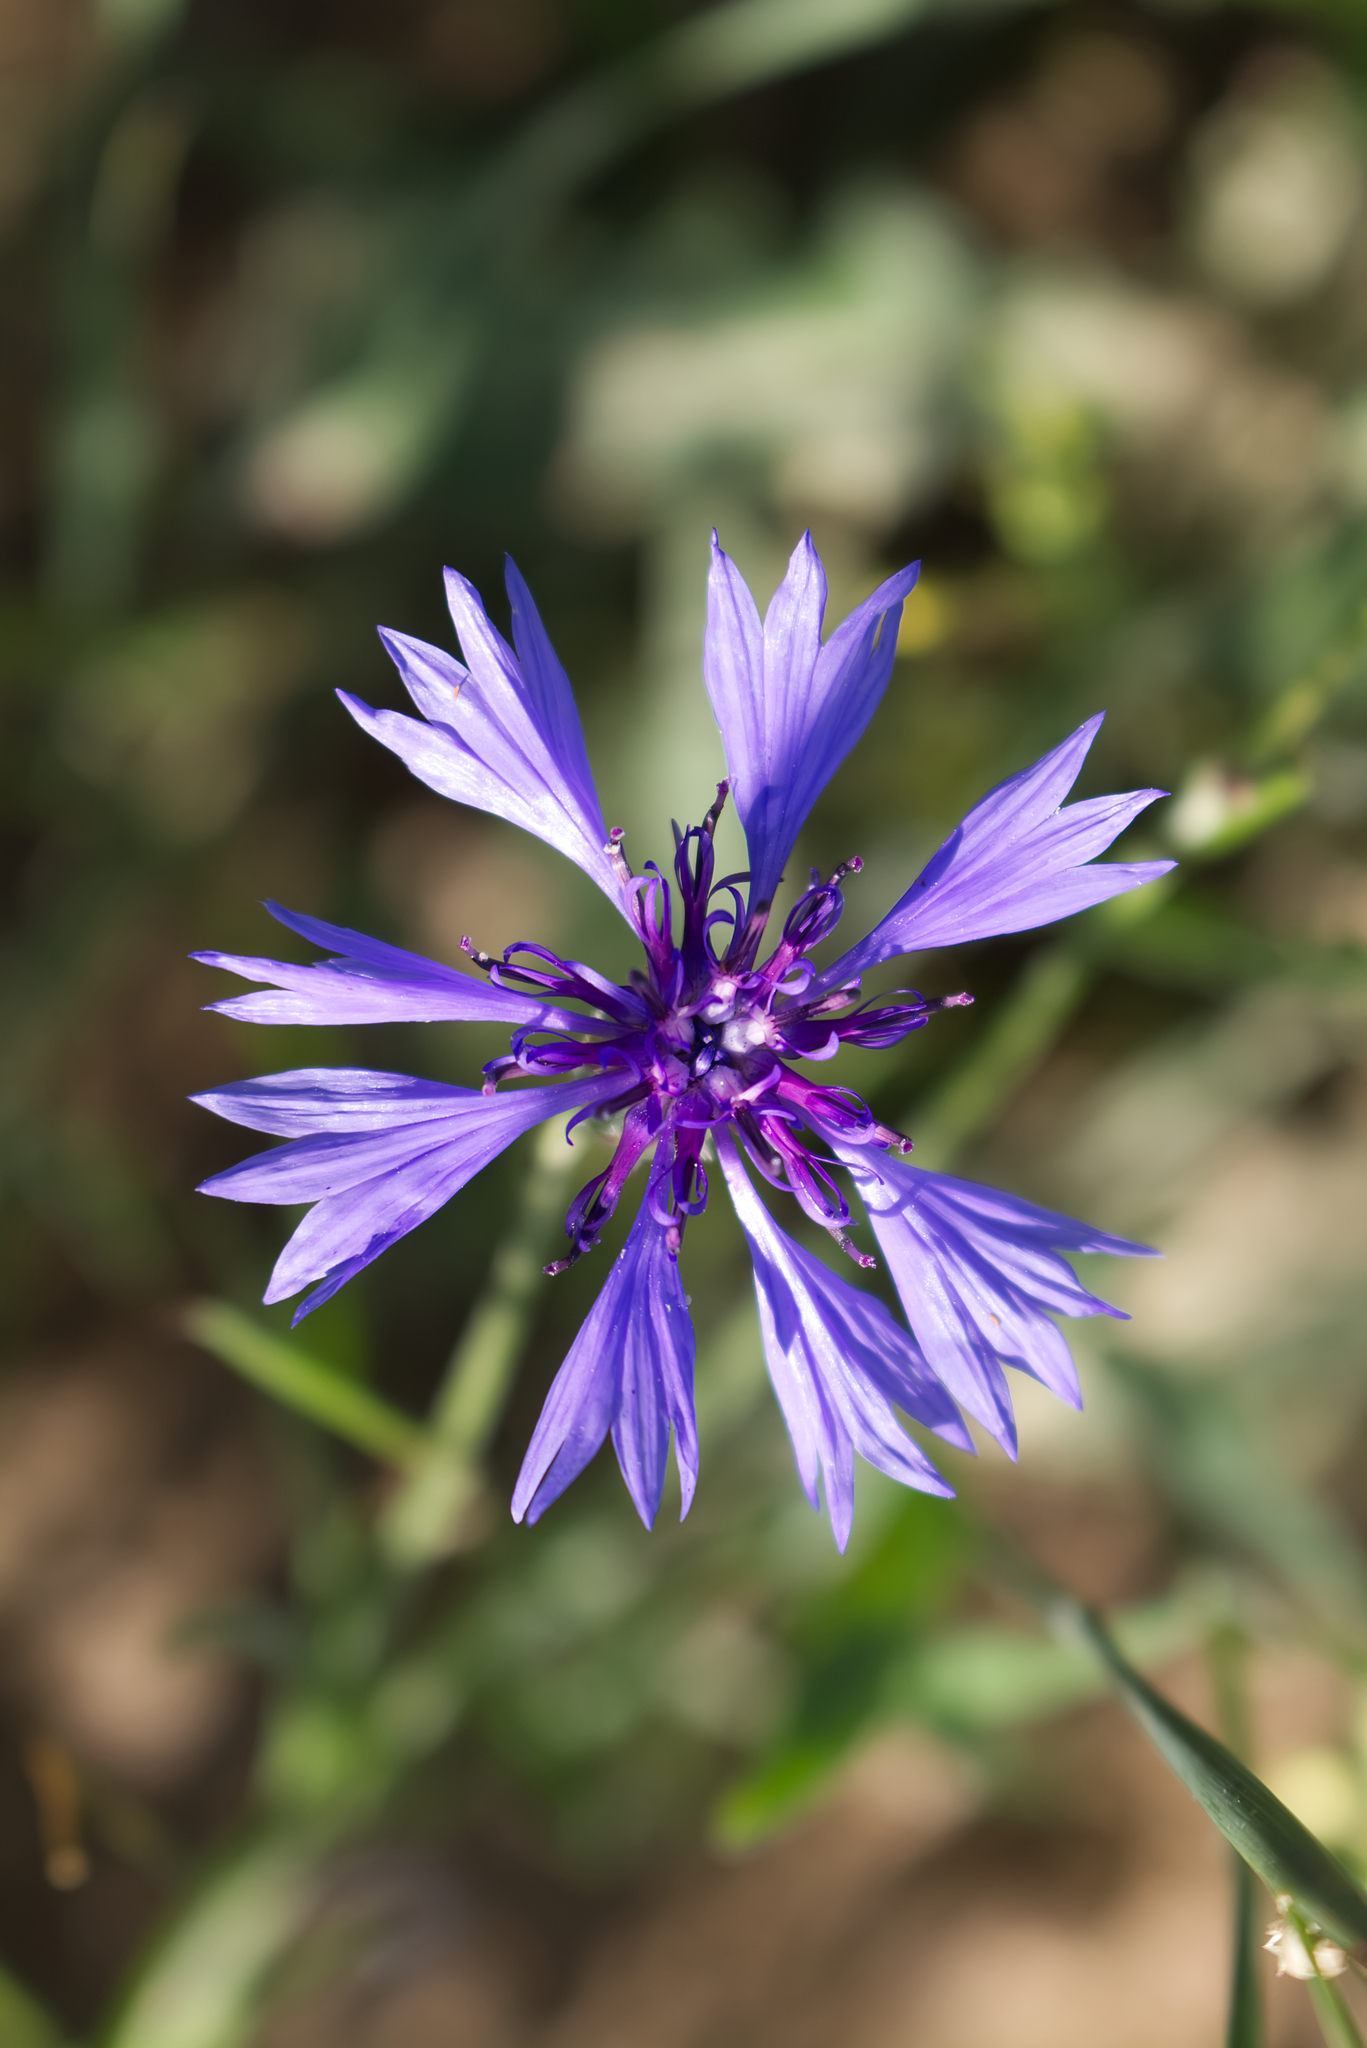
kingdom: Plantae
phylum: Tracheophyta
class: Magnoliopsida
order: Asterales
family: Asteraceae
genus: Centaurea
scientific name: Centaurea cyanus
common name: Cornflower
